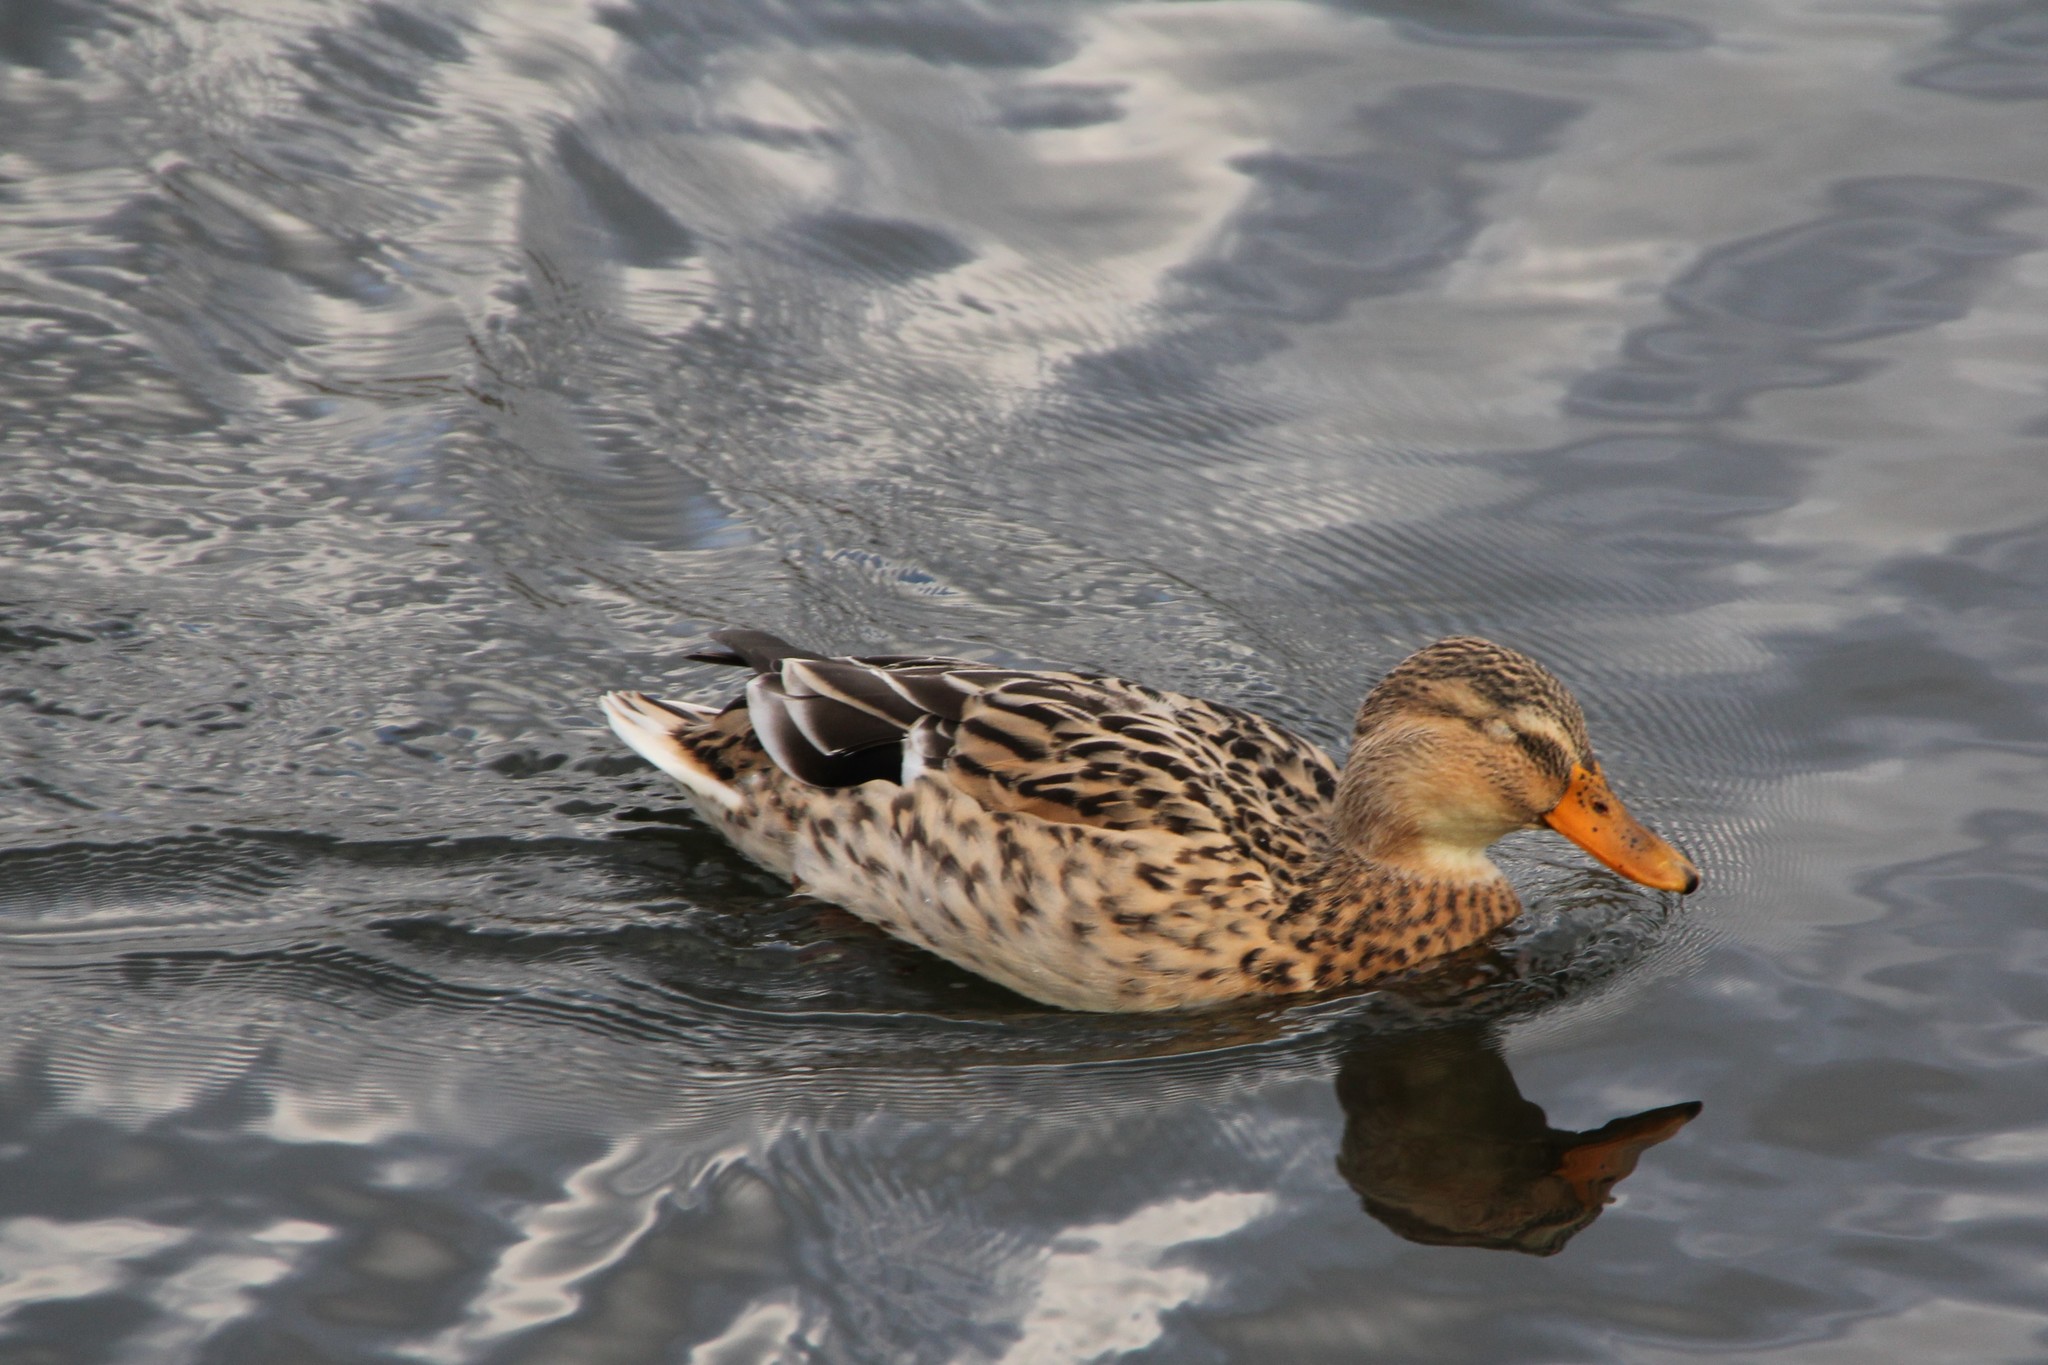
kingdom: Animalia
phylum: Chordata
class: Aves
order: Anseriformes
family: Anatidae
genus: Anas
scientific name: Anas platyrhynchos
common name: Mallard
